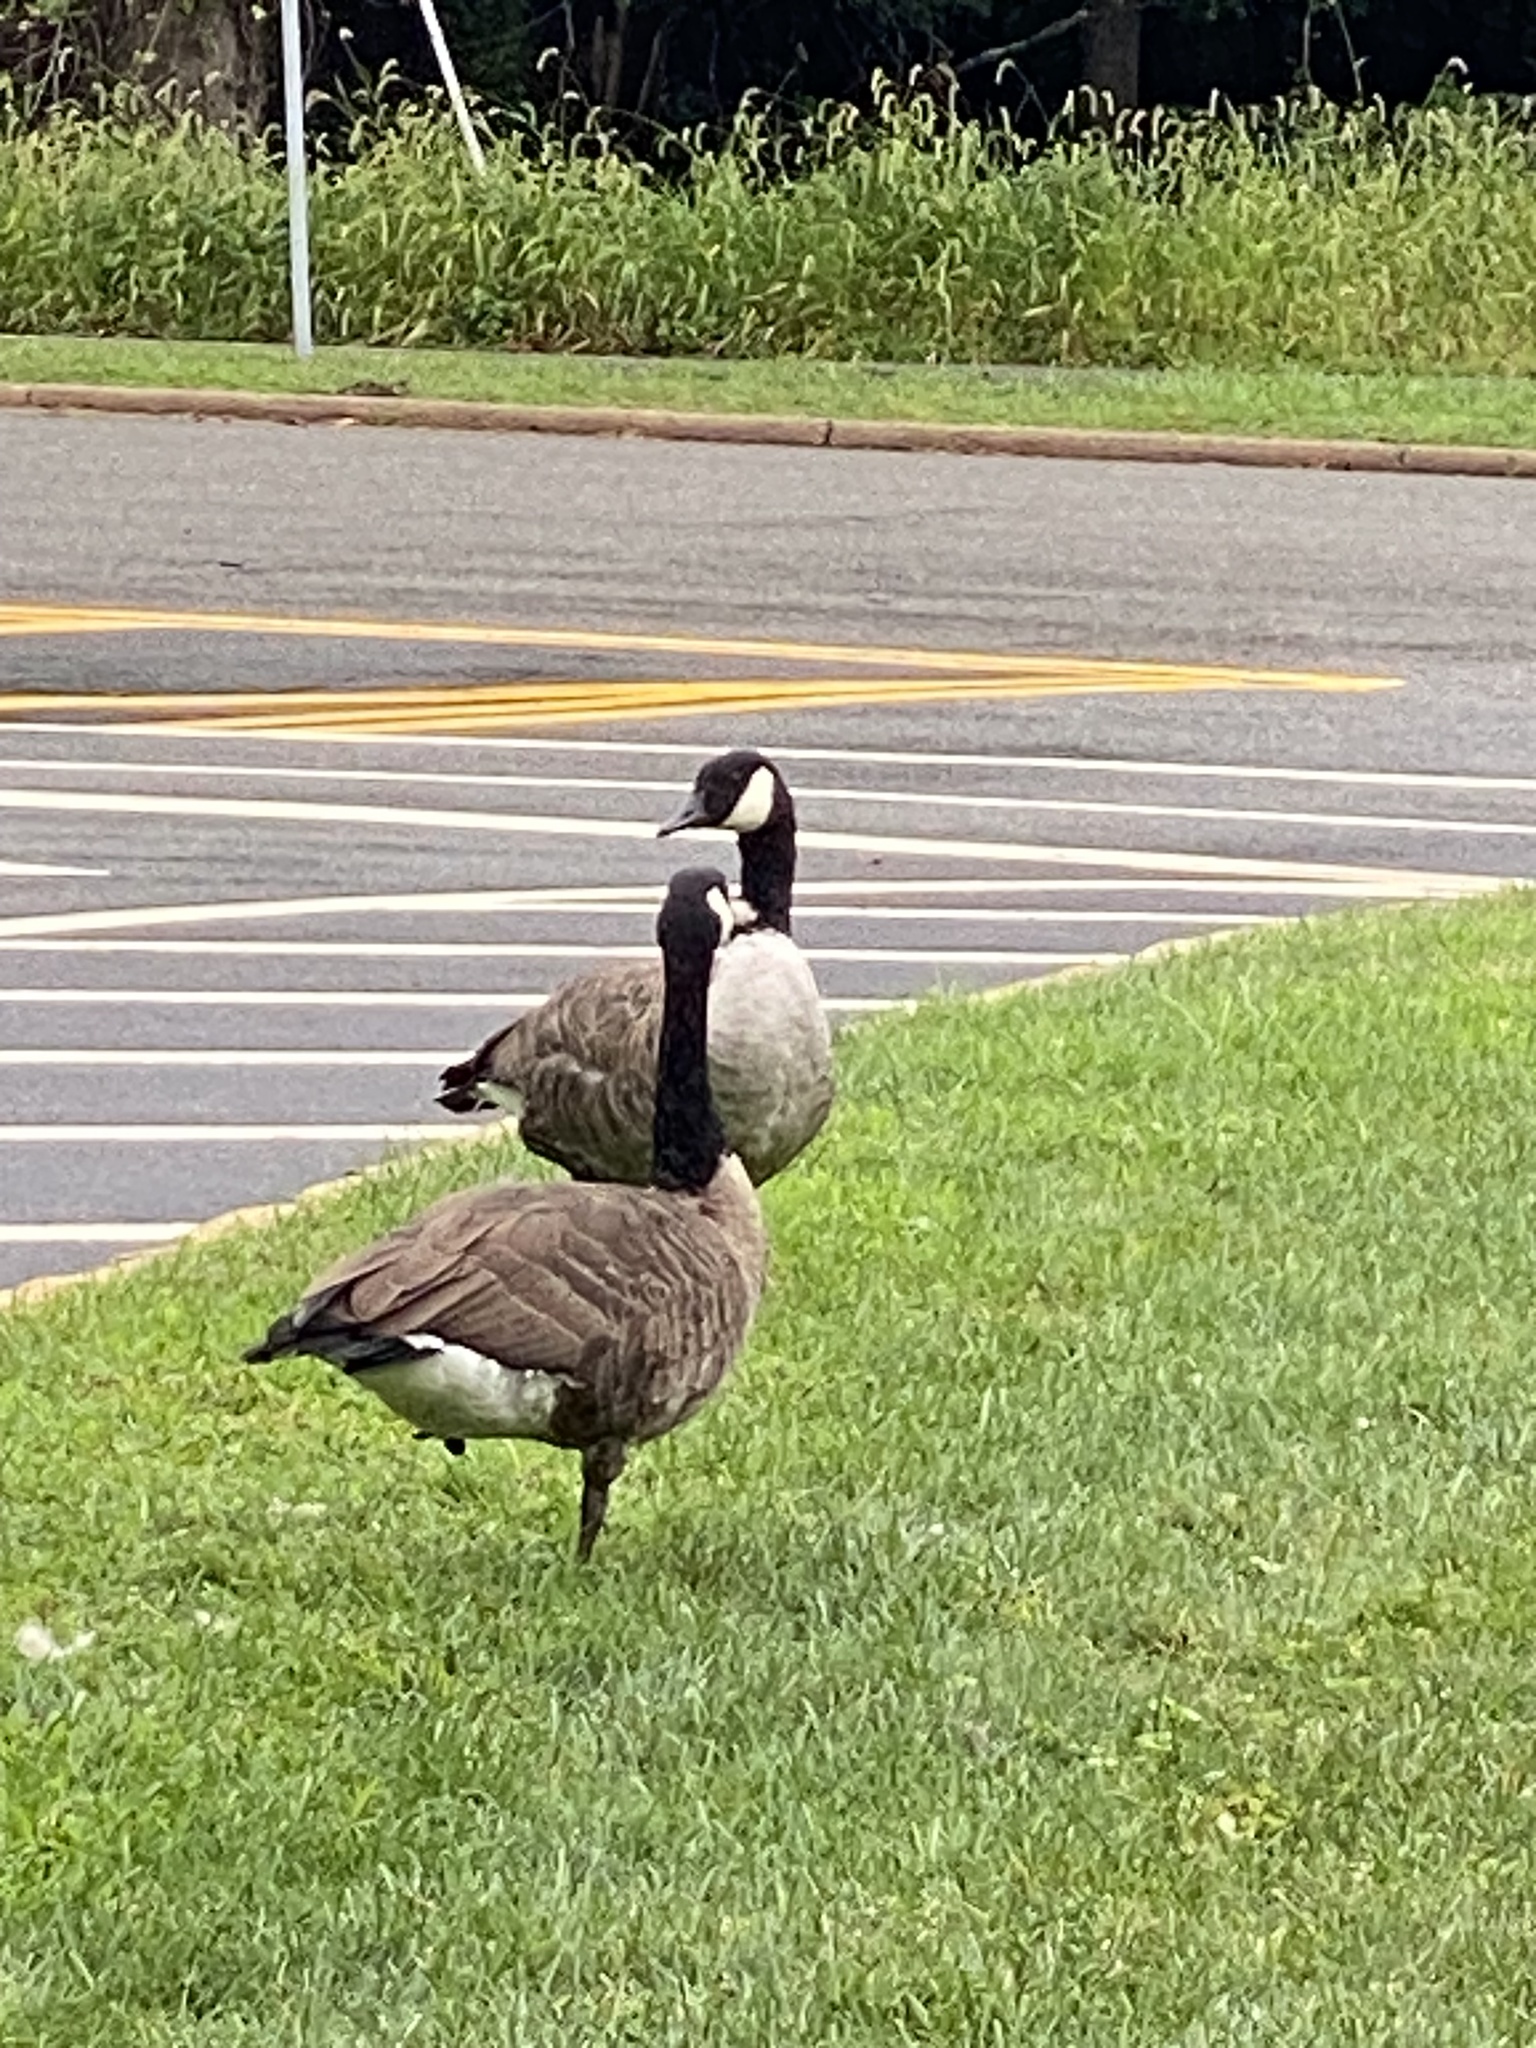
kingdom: Animalia
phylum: Chordata
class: Aves
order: Anseriformes
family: Anatidae
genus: Branta
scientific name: Branta canadensis
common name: Canada goose
